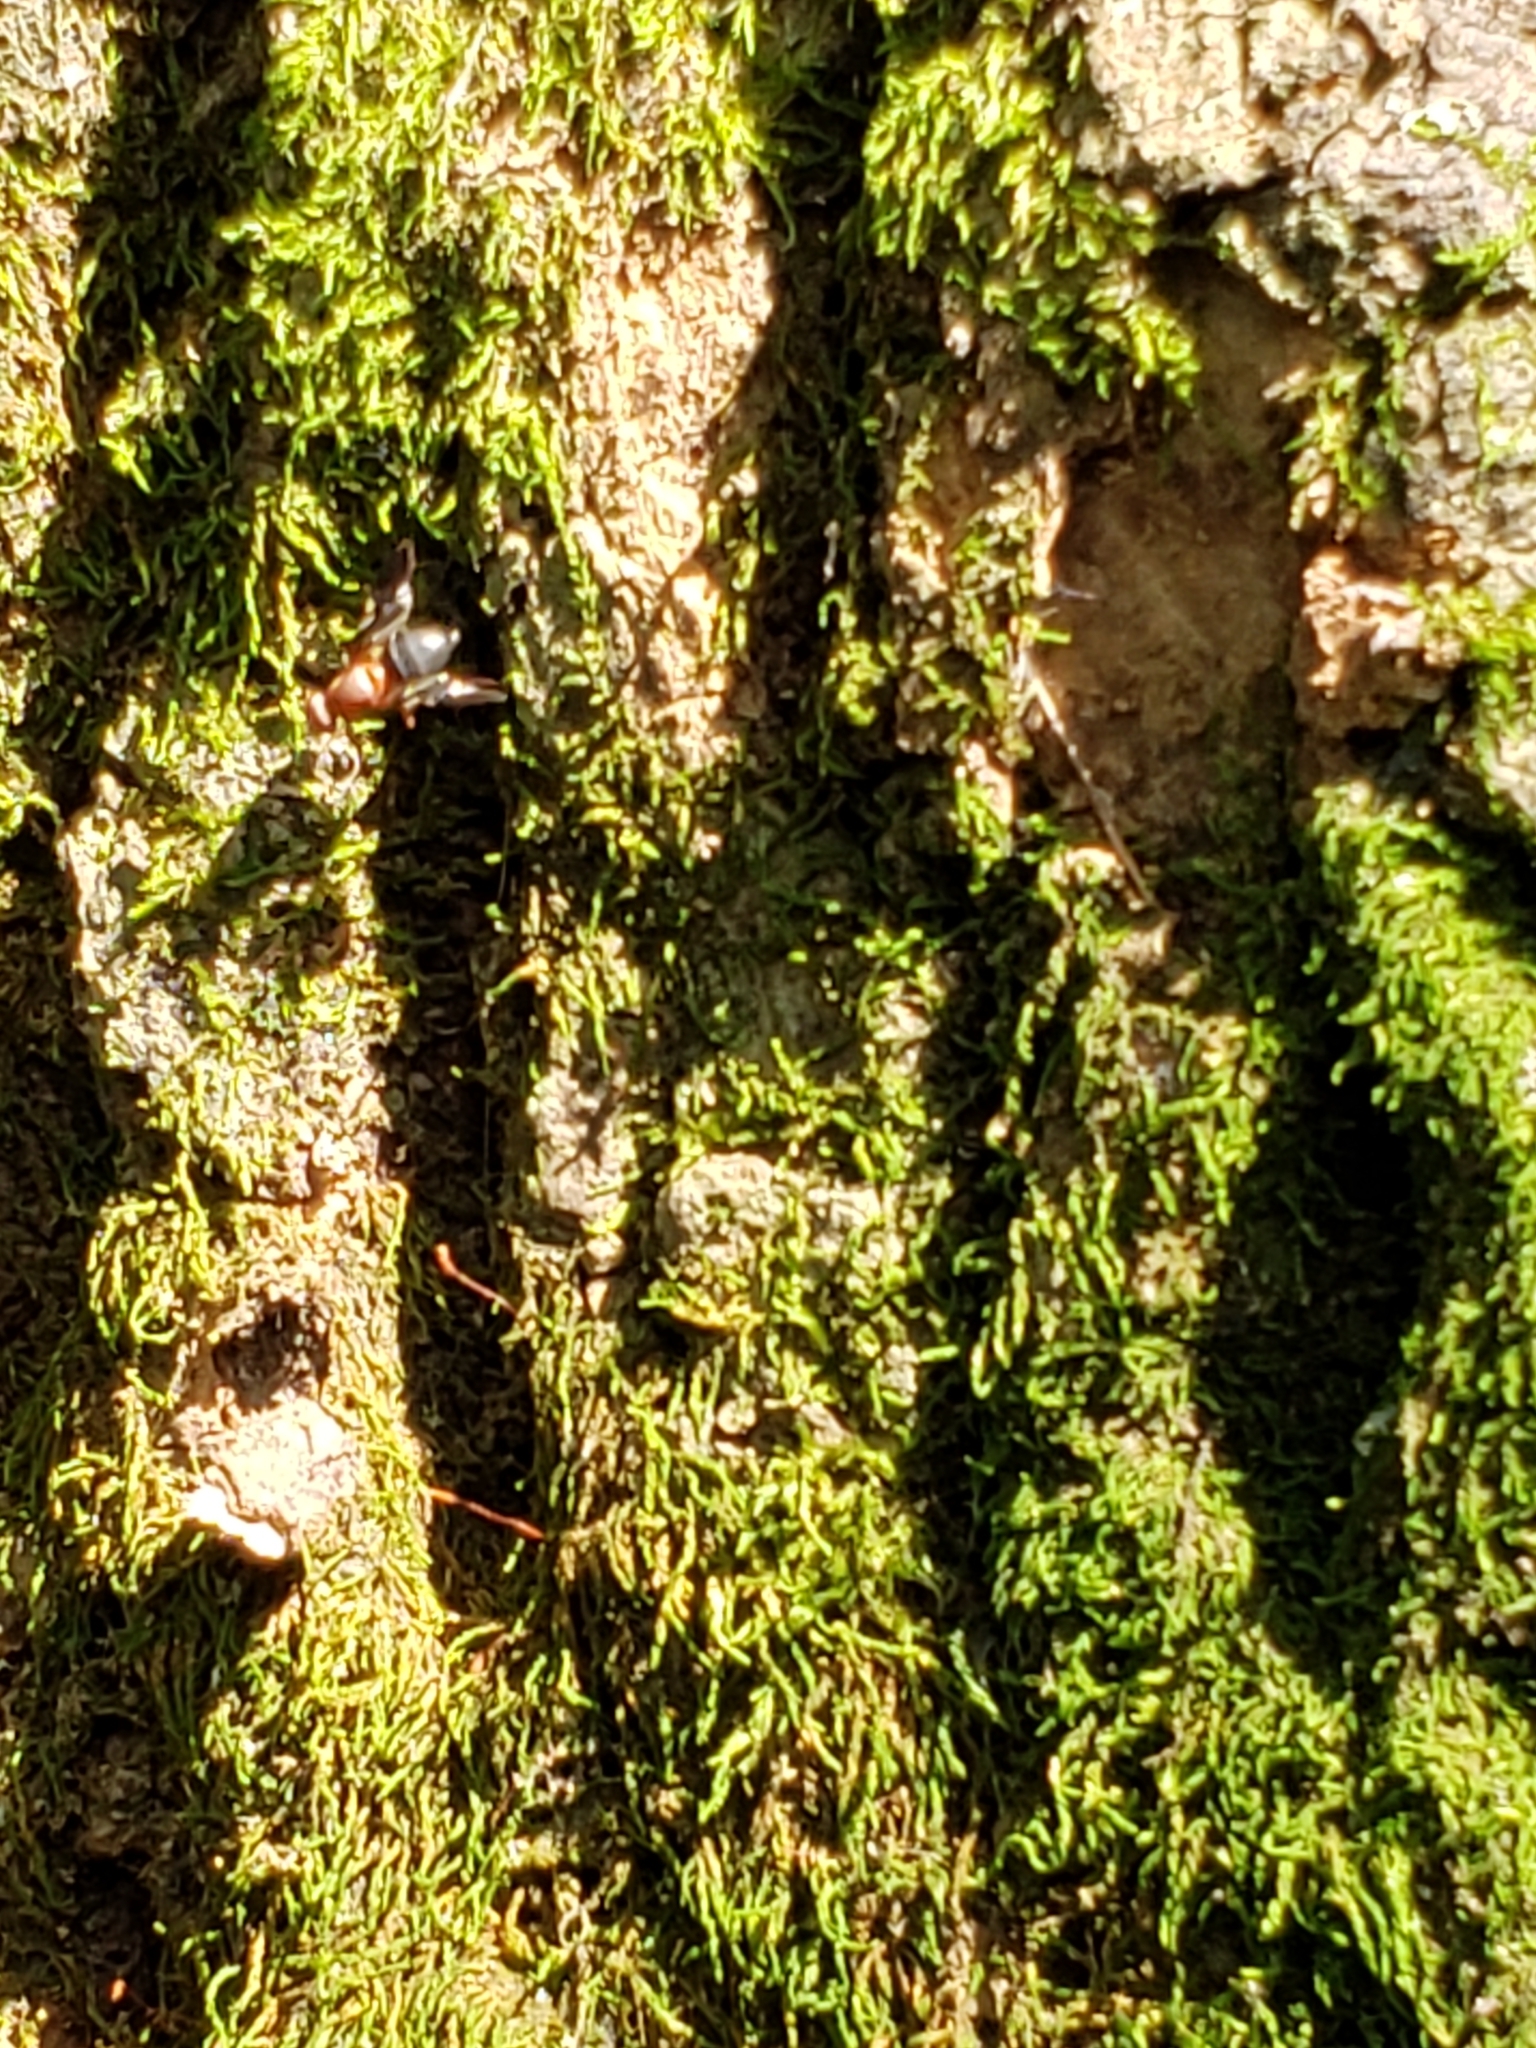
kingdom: Animalia
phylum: Arthropoda
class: Insecta
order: Diptera
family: Ulidiidae
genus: Delphinia
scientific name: Delphinia picta
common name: Common picture-winged fly
